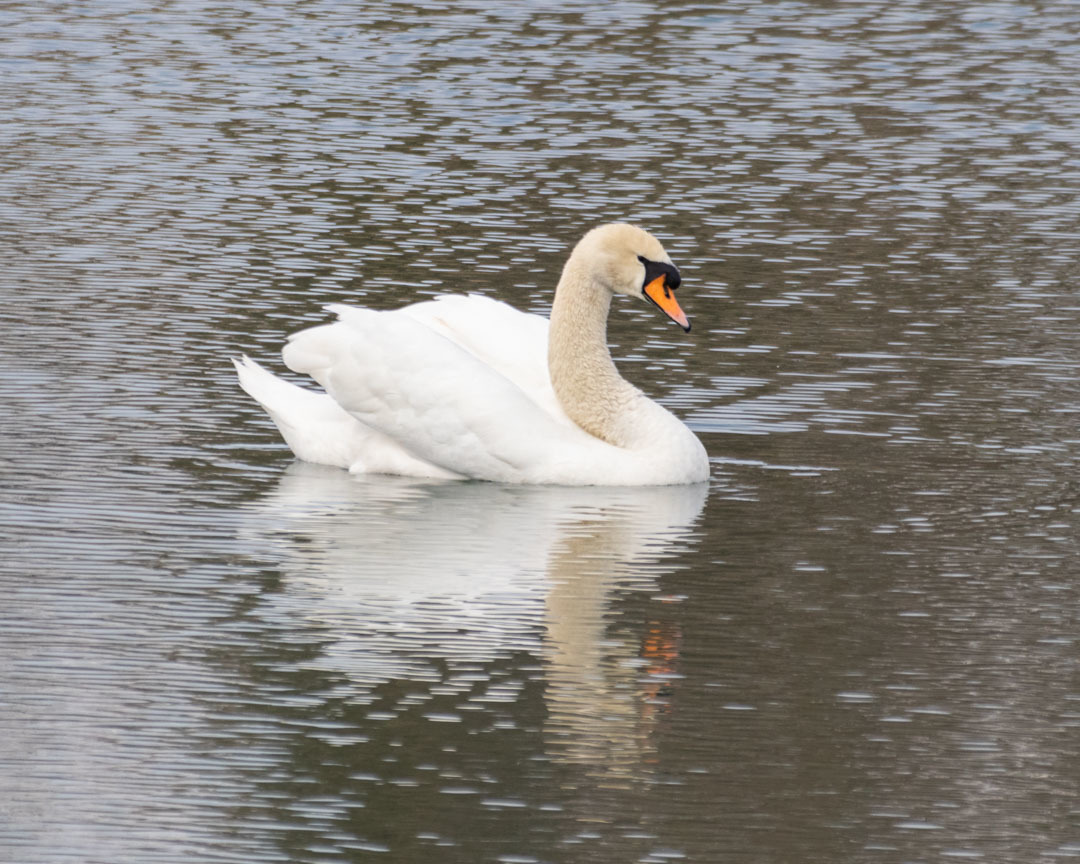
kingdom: Animalia
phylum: Chordata
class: Aves
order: Anseriformes
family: Anatidae
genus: Cygnus
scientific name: Cygnus olor
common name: Mute swan
